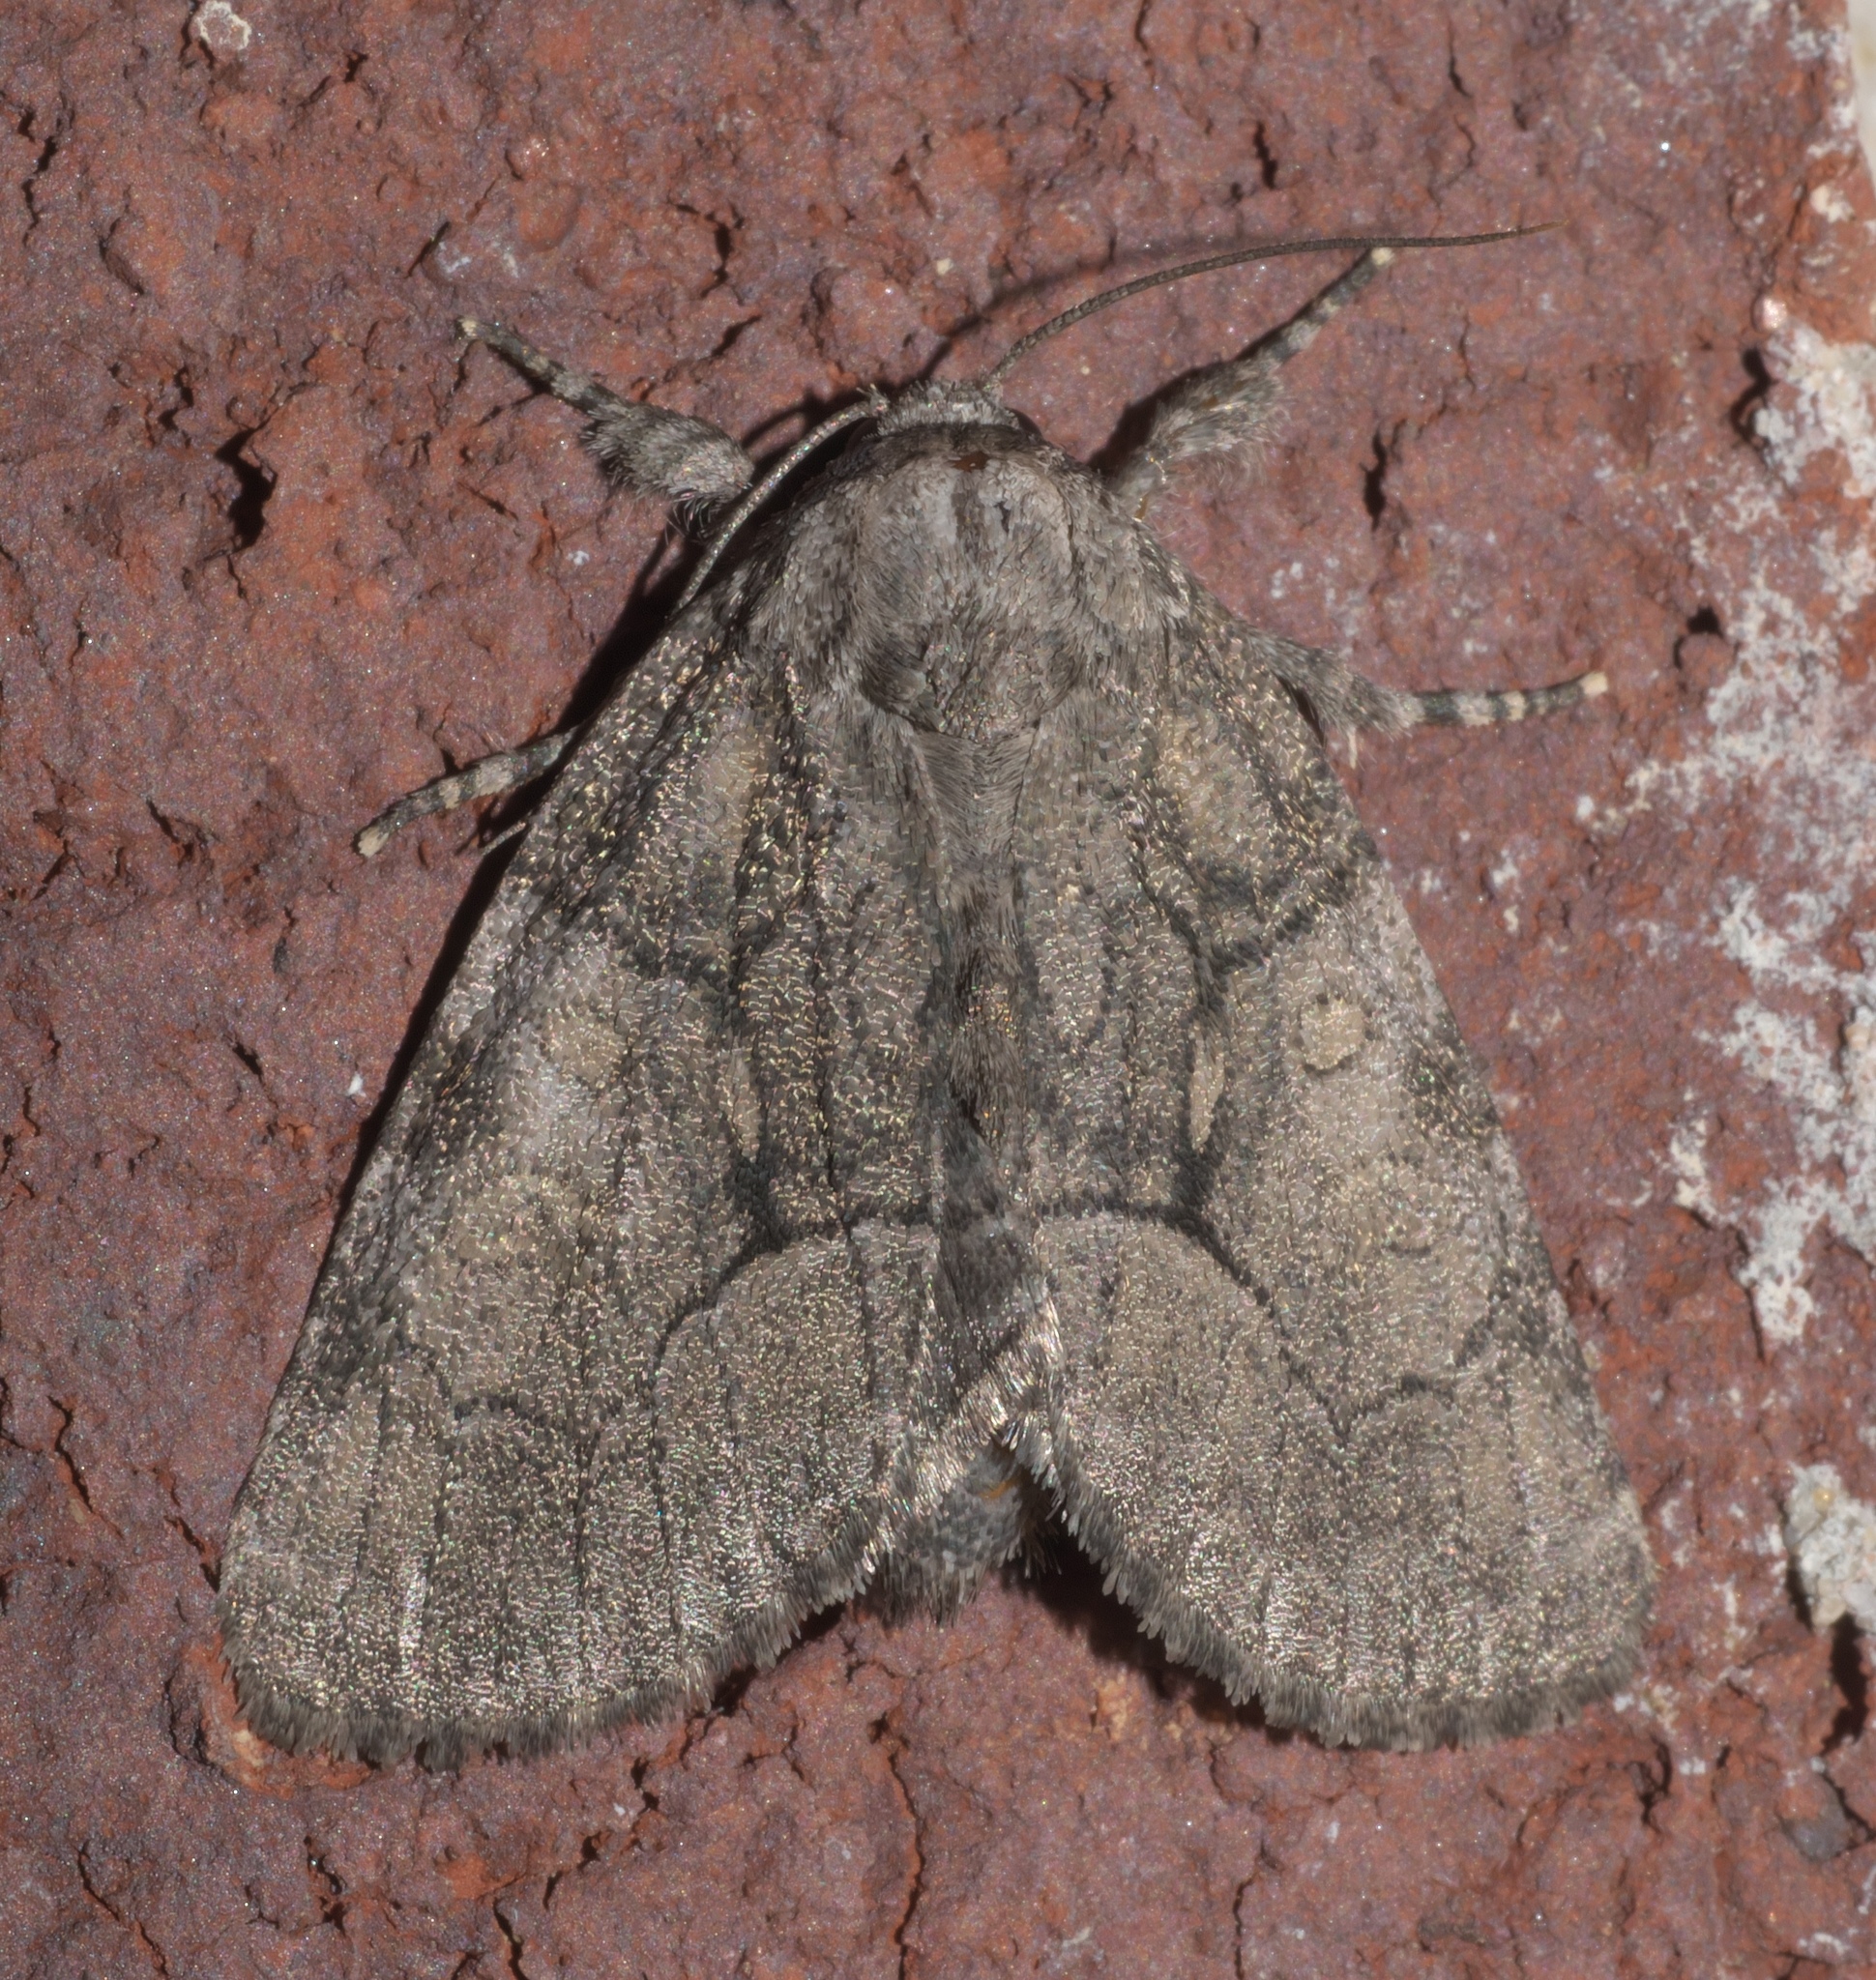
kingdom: Animalia
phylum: Arthropoda
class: Insecta
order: Lepidoptera
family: Noctuidae
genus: Raphia
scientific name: Raphia frater
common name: Brother
